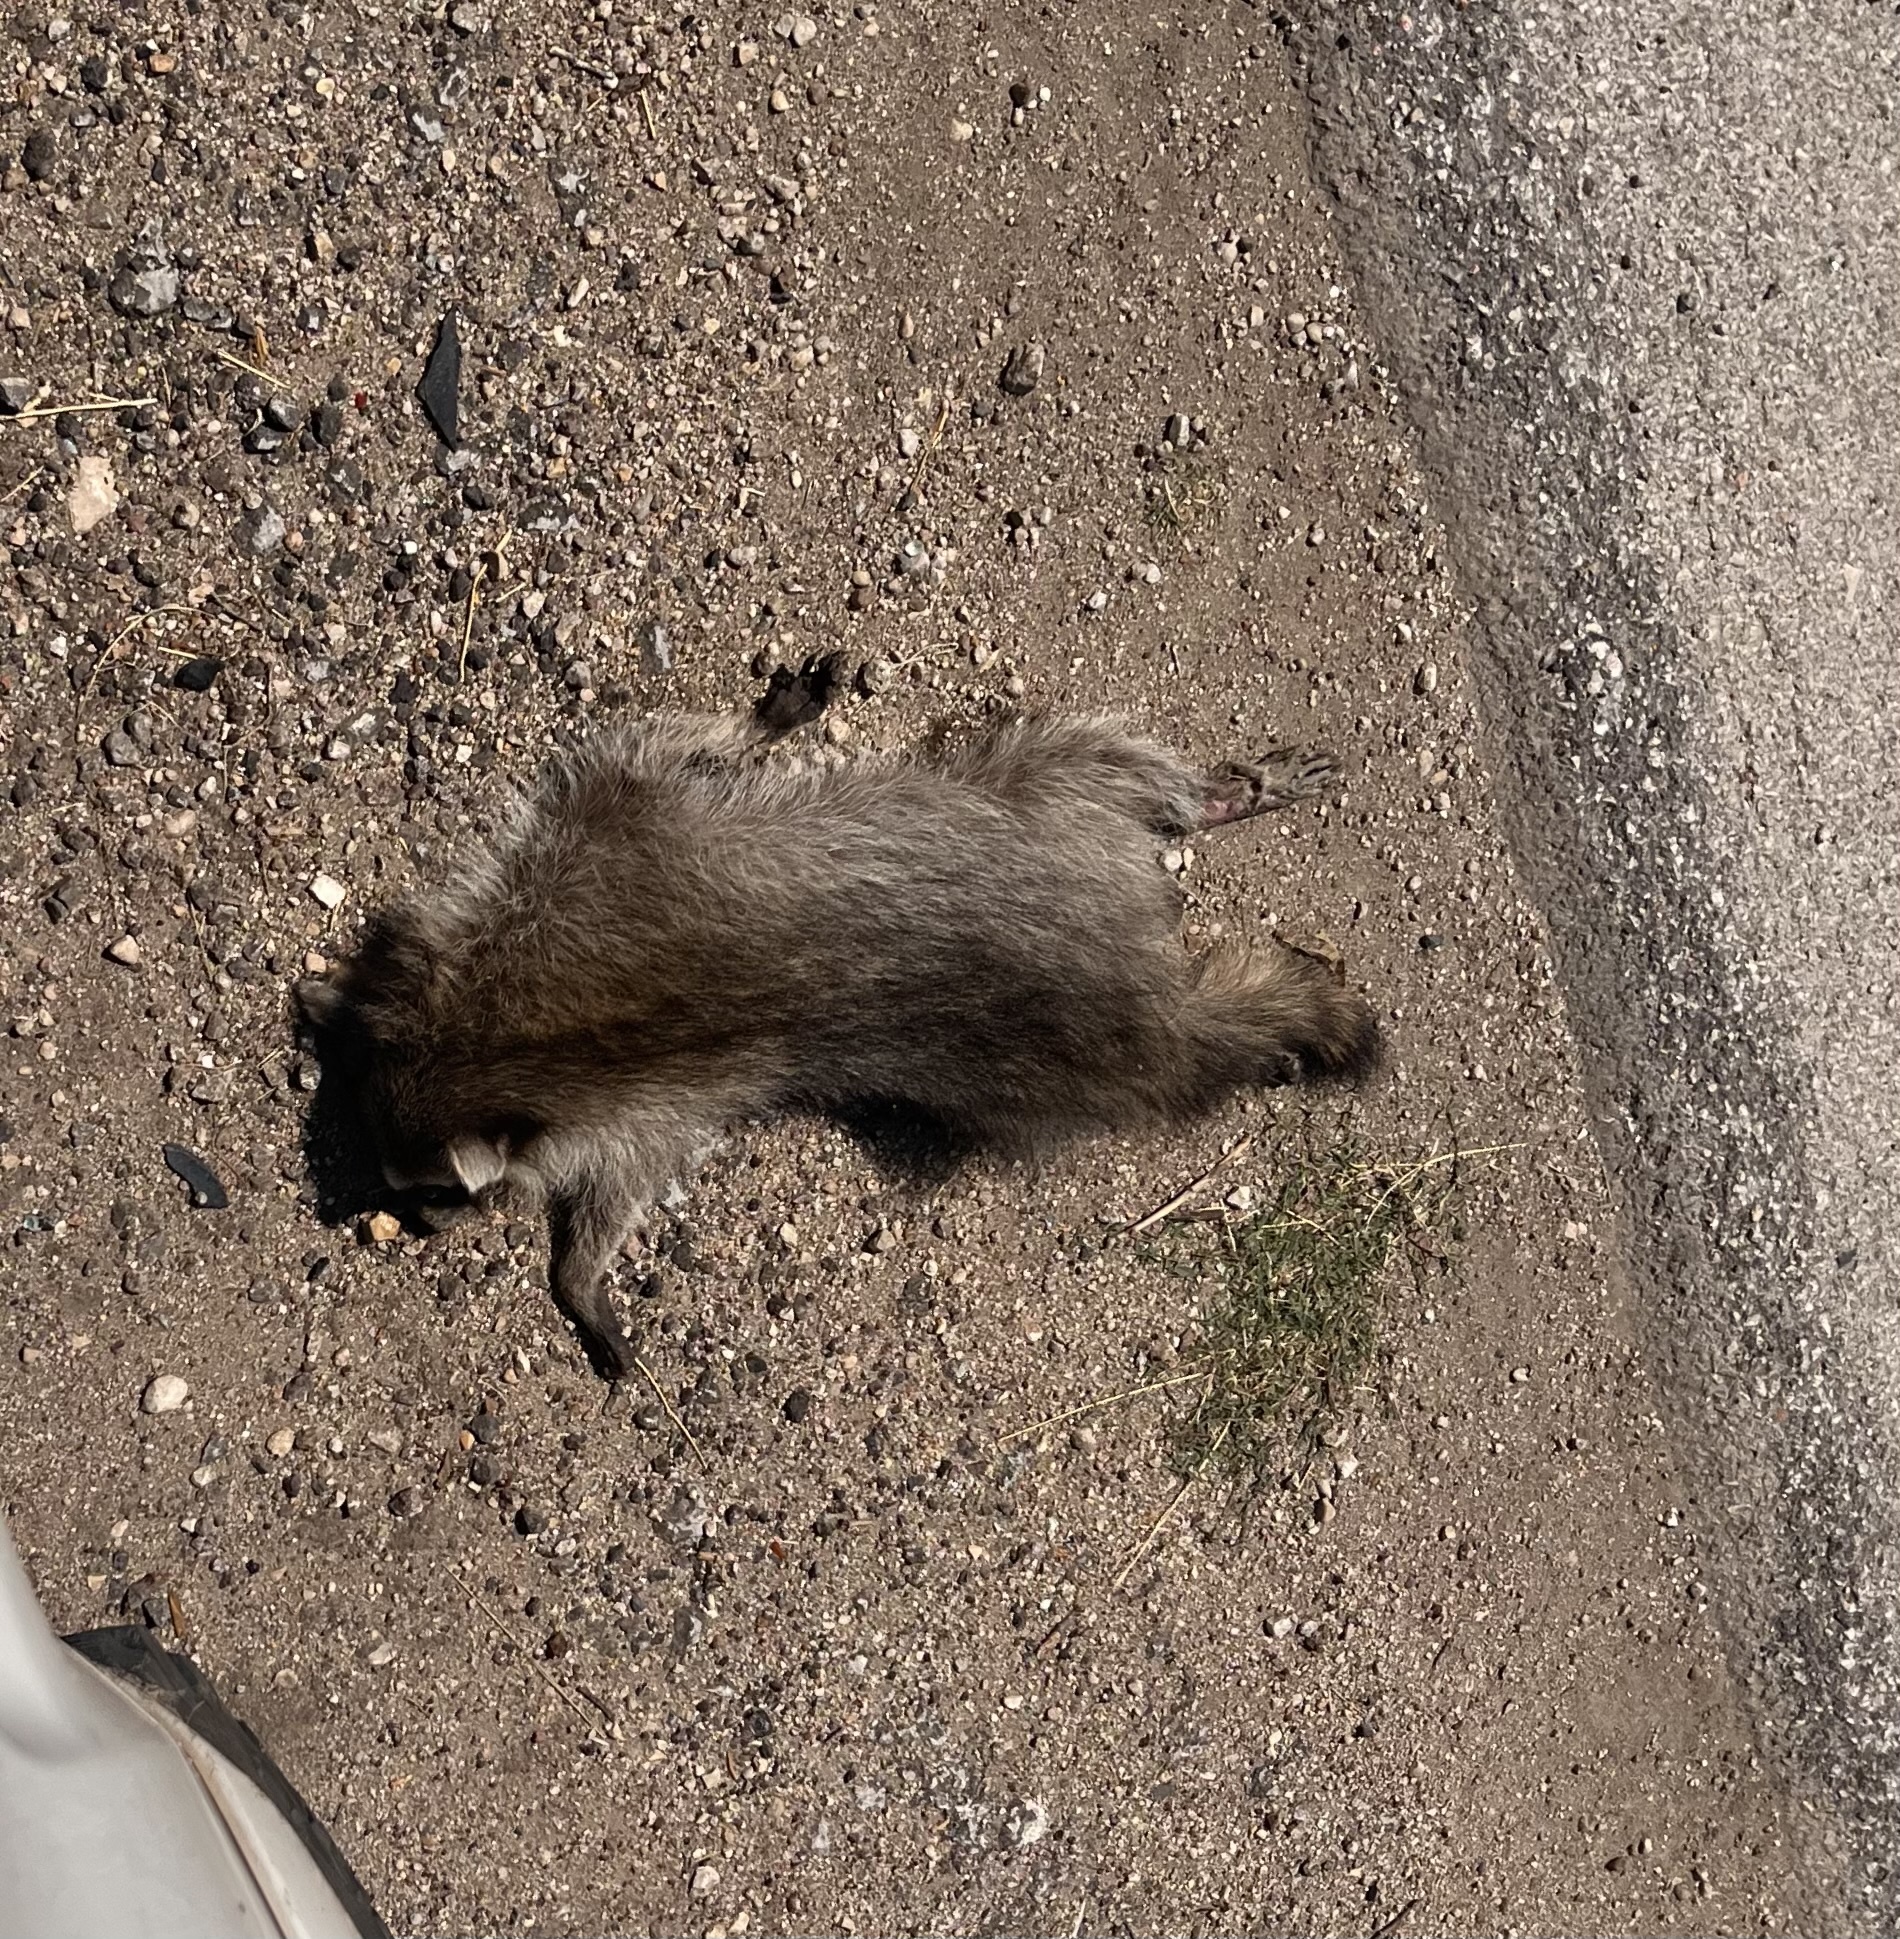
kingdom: Animalia
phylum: Chordata
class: Mammalia
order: Carnivora
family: Procyonidae
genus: Procyon
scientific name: Procyon lotor
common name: Raccoon
